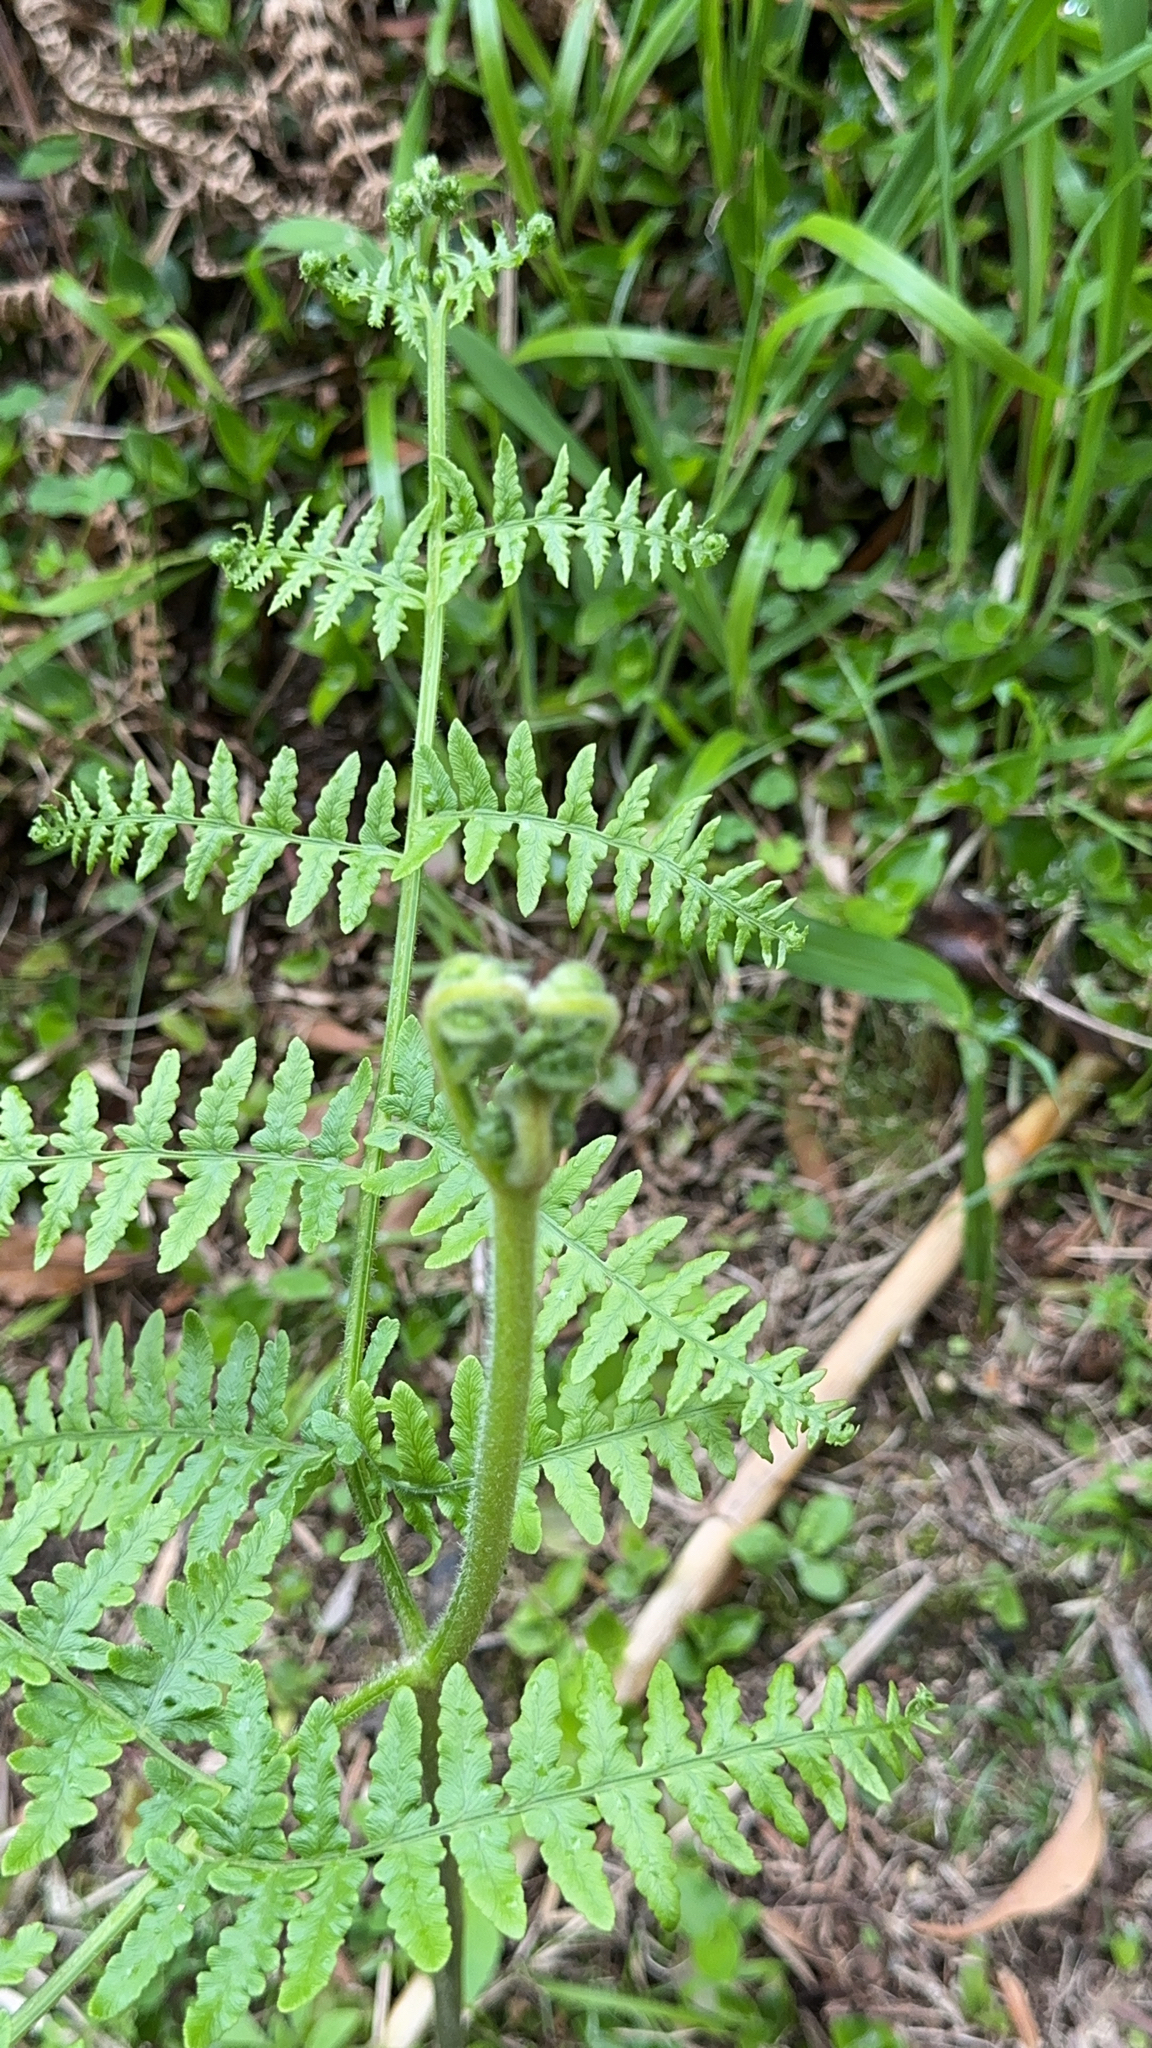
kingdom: Plantae
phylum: Tracheophyta
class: Polypodiopsida
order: Polypodiales
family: Dennstaedtiaceae
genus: Pteridium
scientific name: Pteridium aquilinum
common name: Bracken
